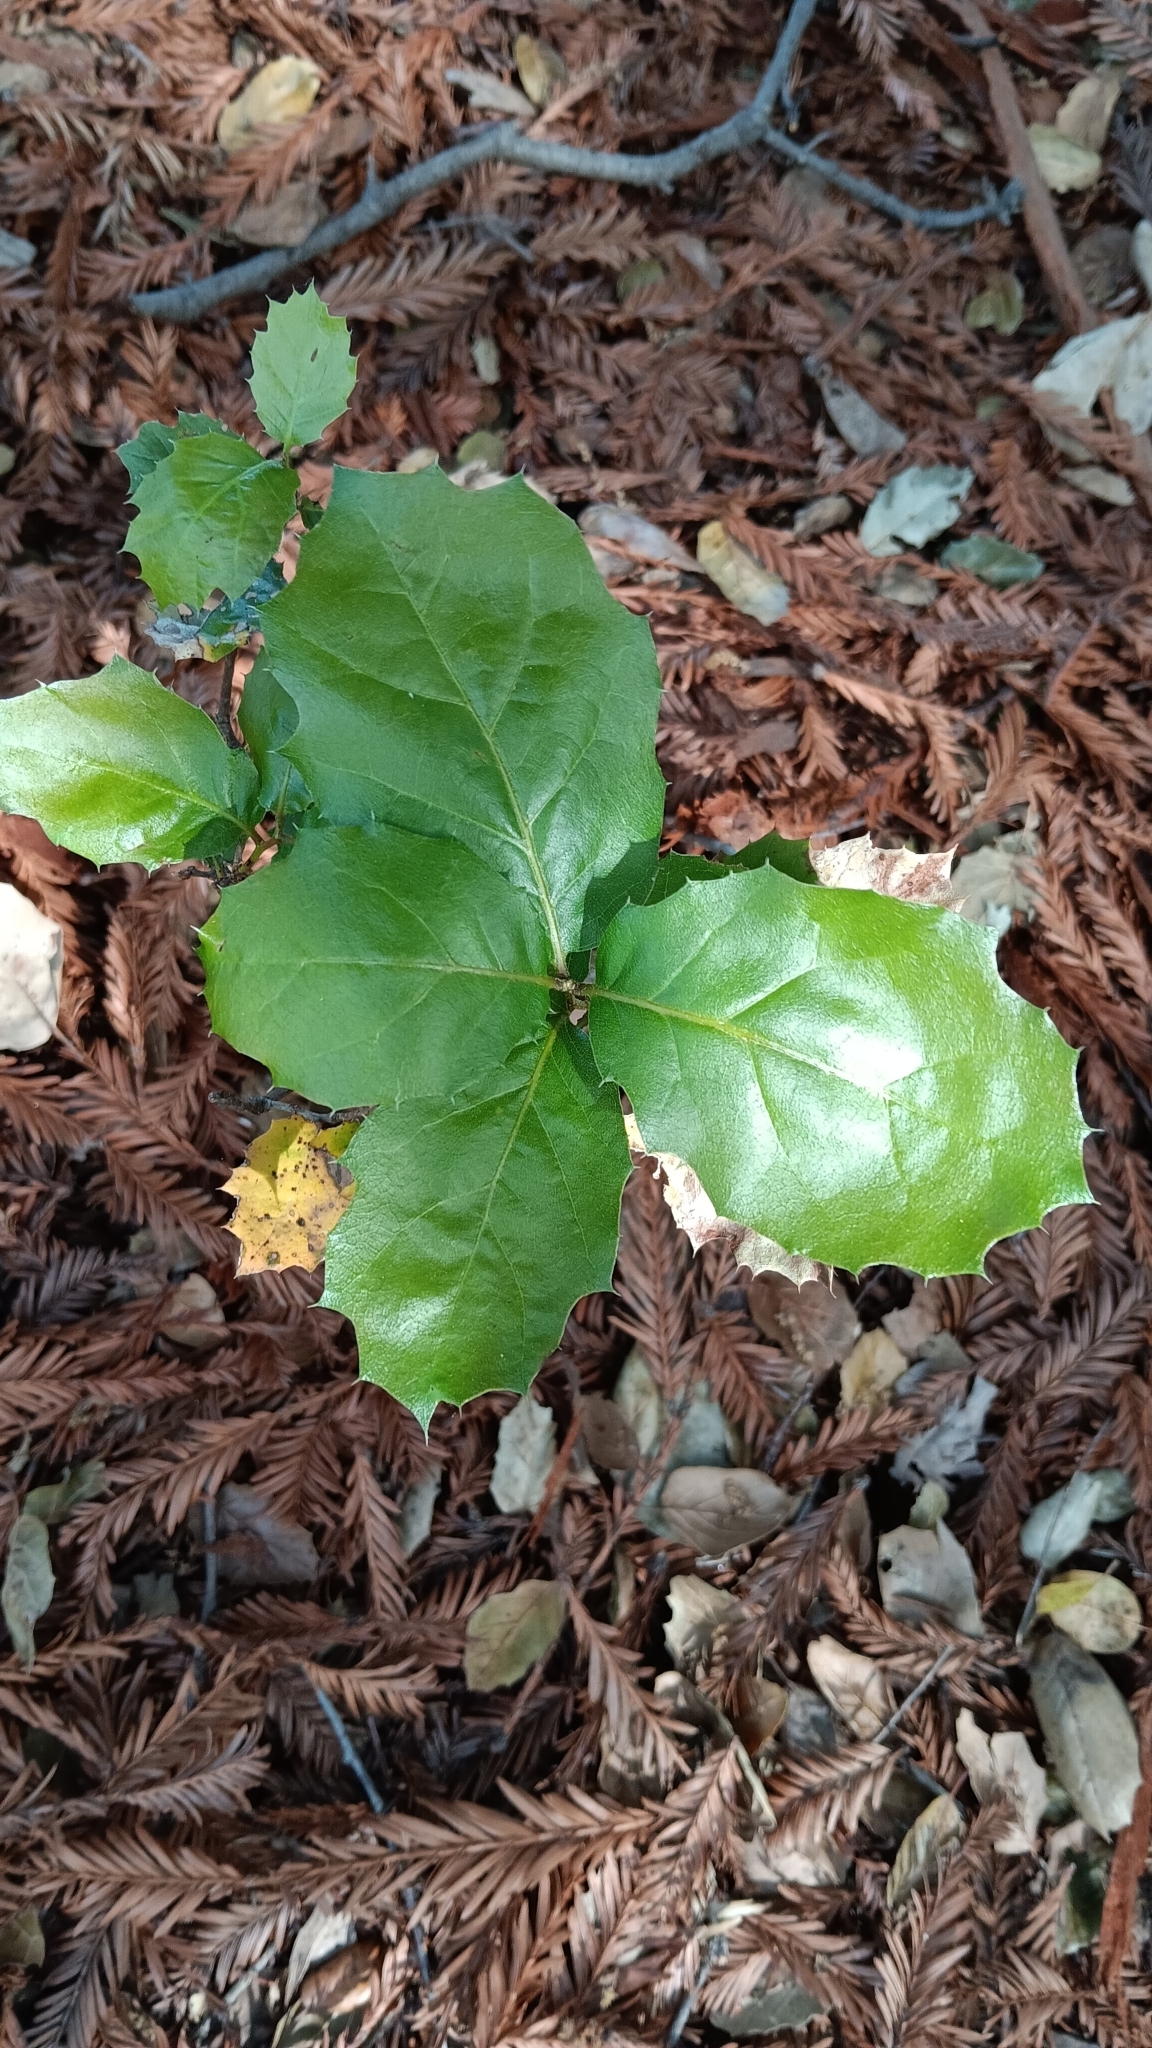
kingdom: Plantae
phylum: Tracheophyta
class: Magnoliopsida
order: Fagales
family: Fagaceae
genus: Quercus
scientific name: Quercus agrifolia
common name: California live oak
